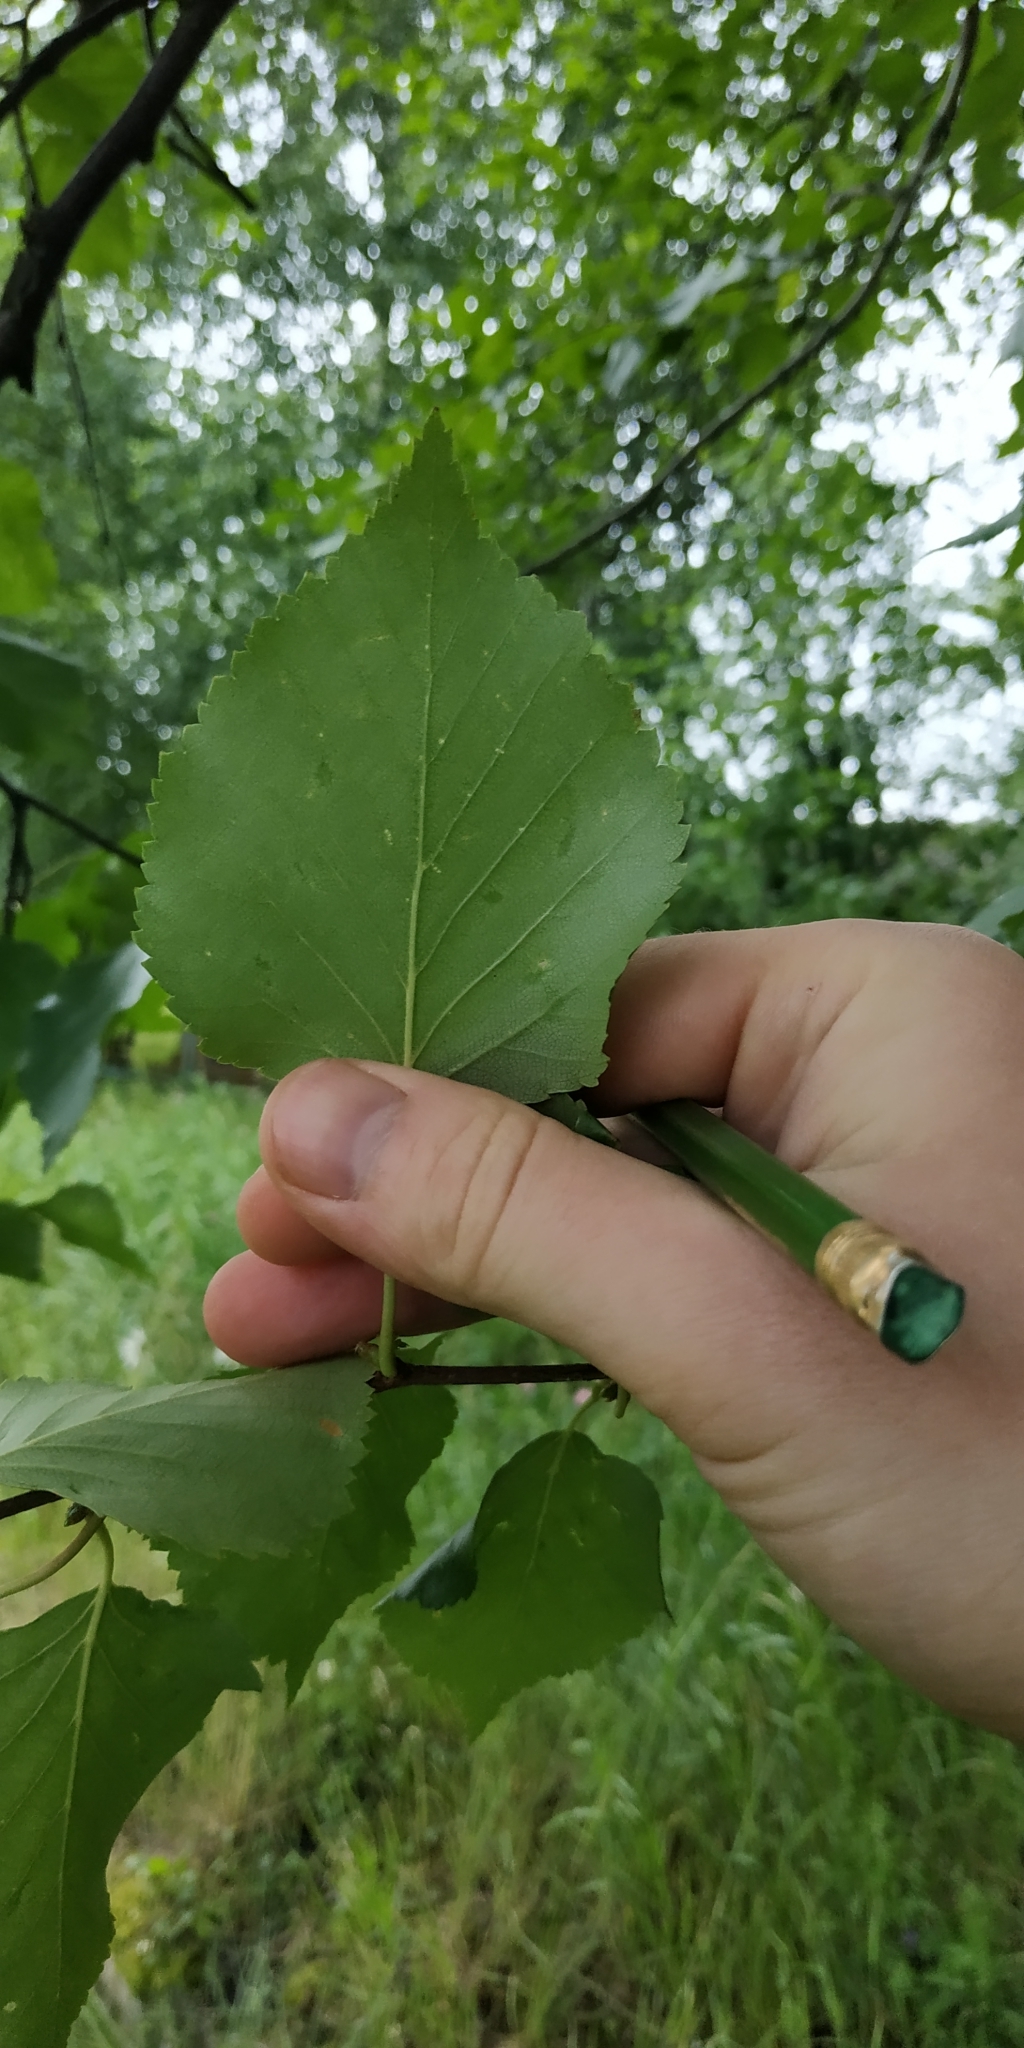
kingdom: Plantae
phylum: Tracheophyta
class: Magnoliopsida
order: Fagales
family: Betulaceae
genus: Betula
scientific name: Betula pubescens
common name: Downy birch
